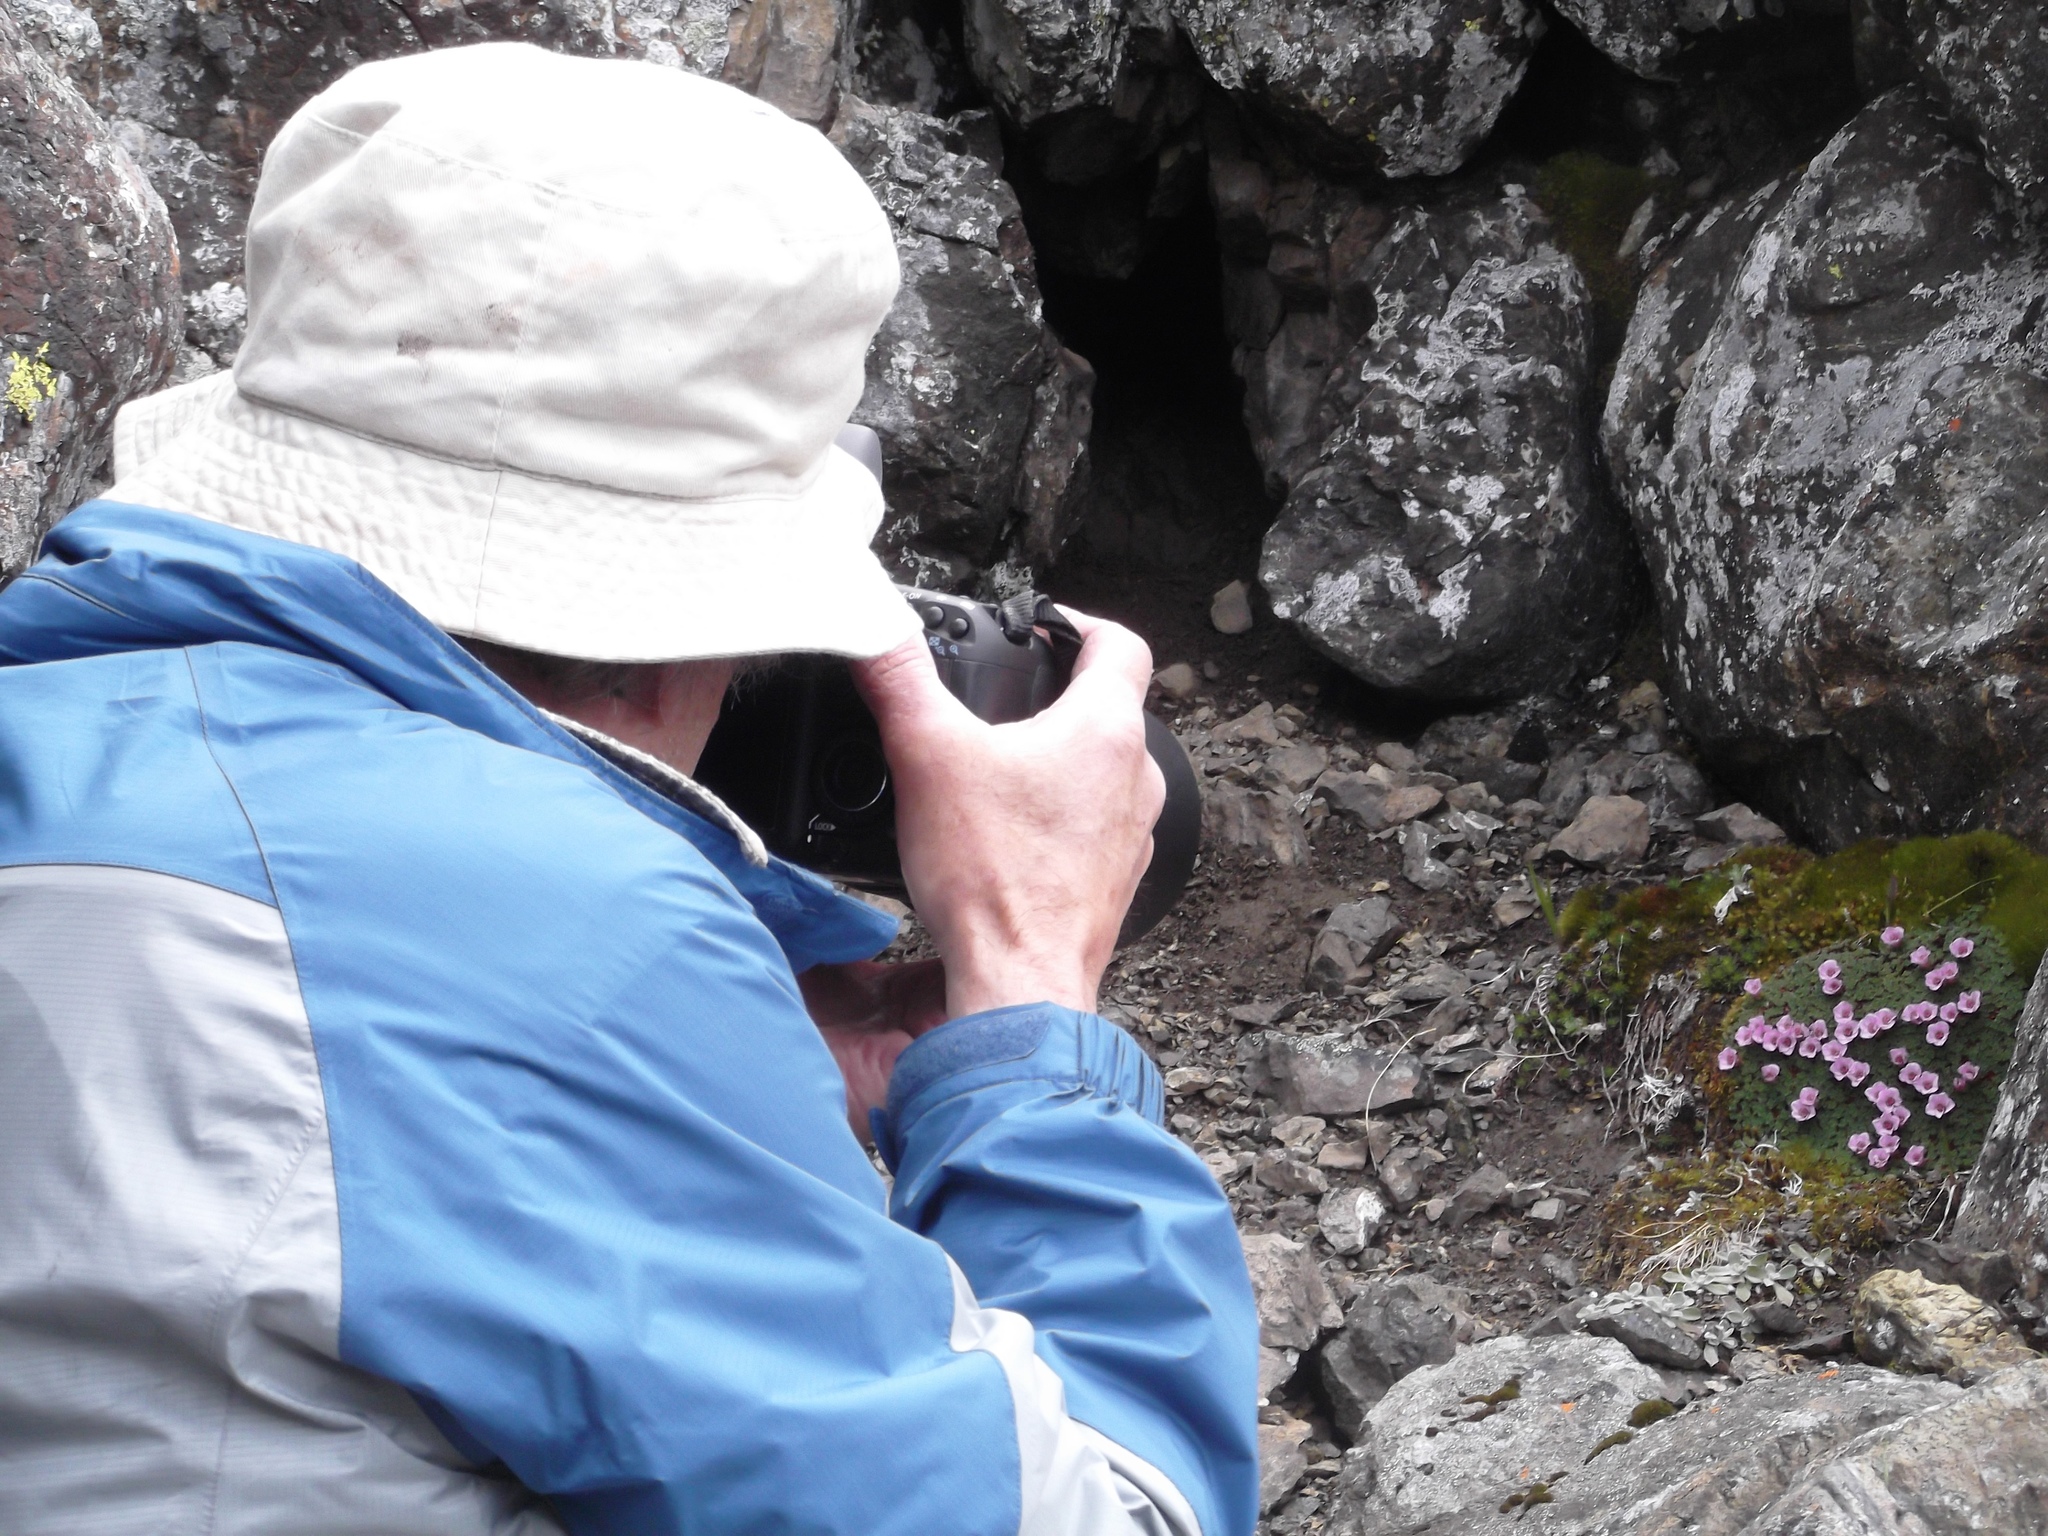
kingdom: Plantae
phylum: Tracheophyta
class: Magnoliopsida
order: Saxifragales
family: Saxifragaceae
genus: Saxifraga
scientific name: Saxifraga oppositifolia
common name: Purple saxifrage
